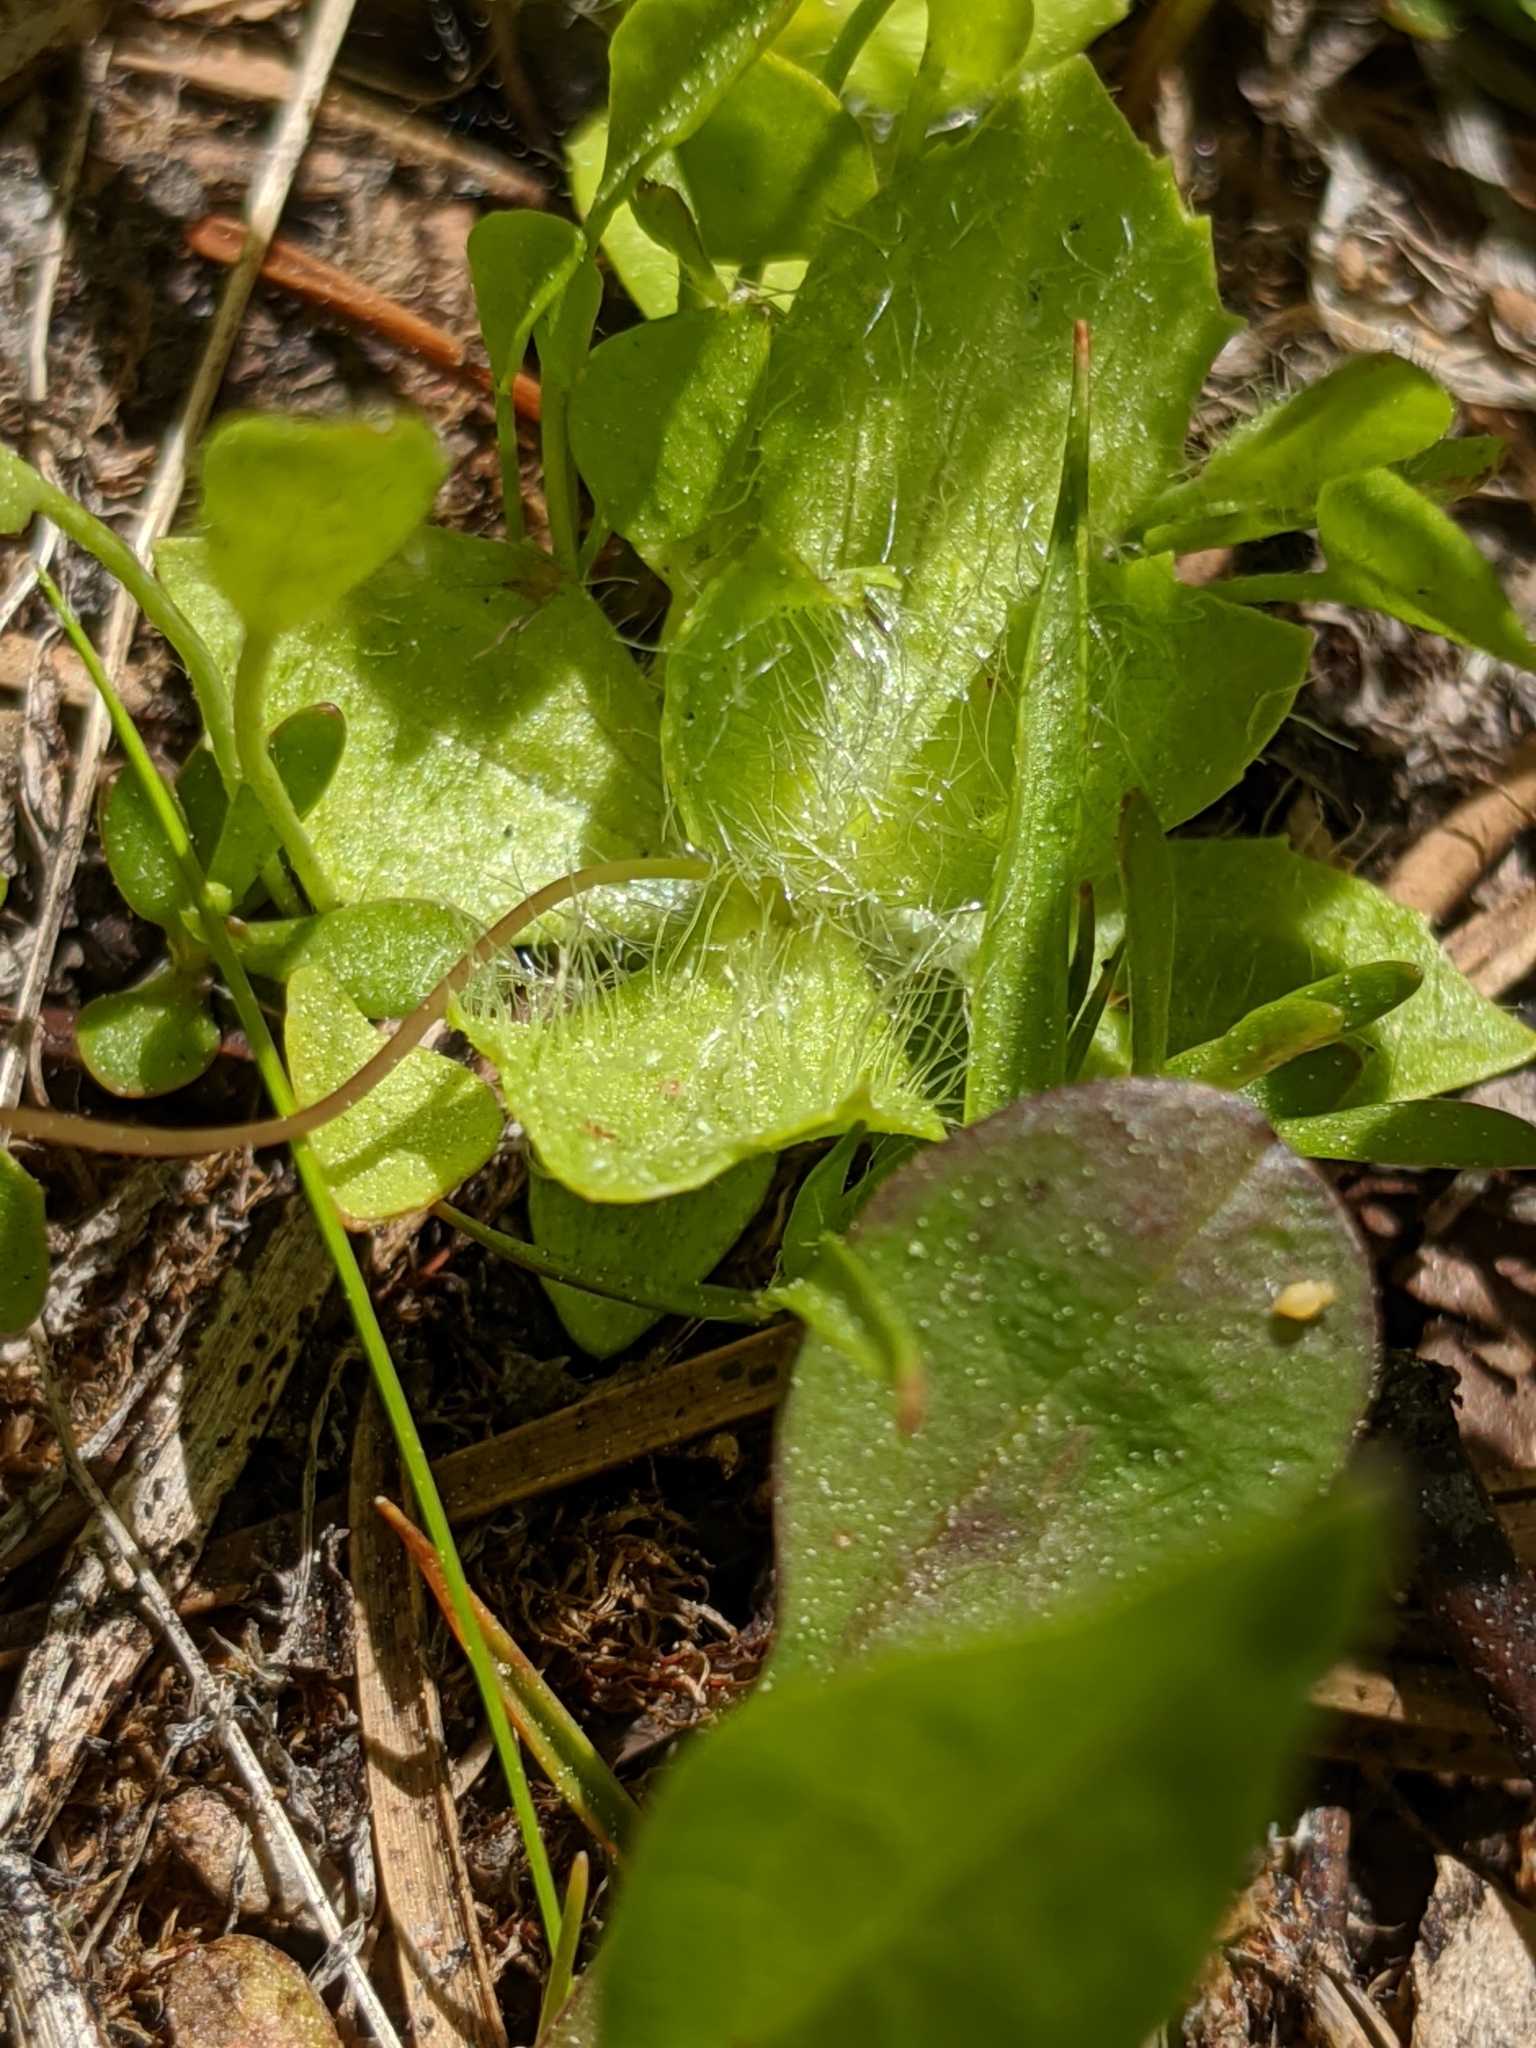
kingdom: Plantae
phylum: Tracheophyta
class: Magnoliopsida
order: Lamiales
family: Phrymaceae
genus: Erythranthe
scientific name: Erythranthe primuloides
